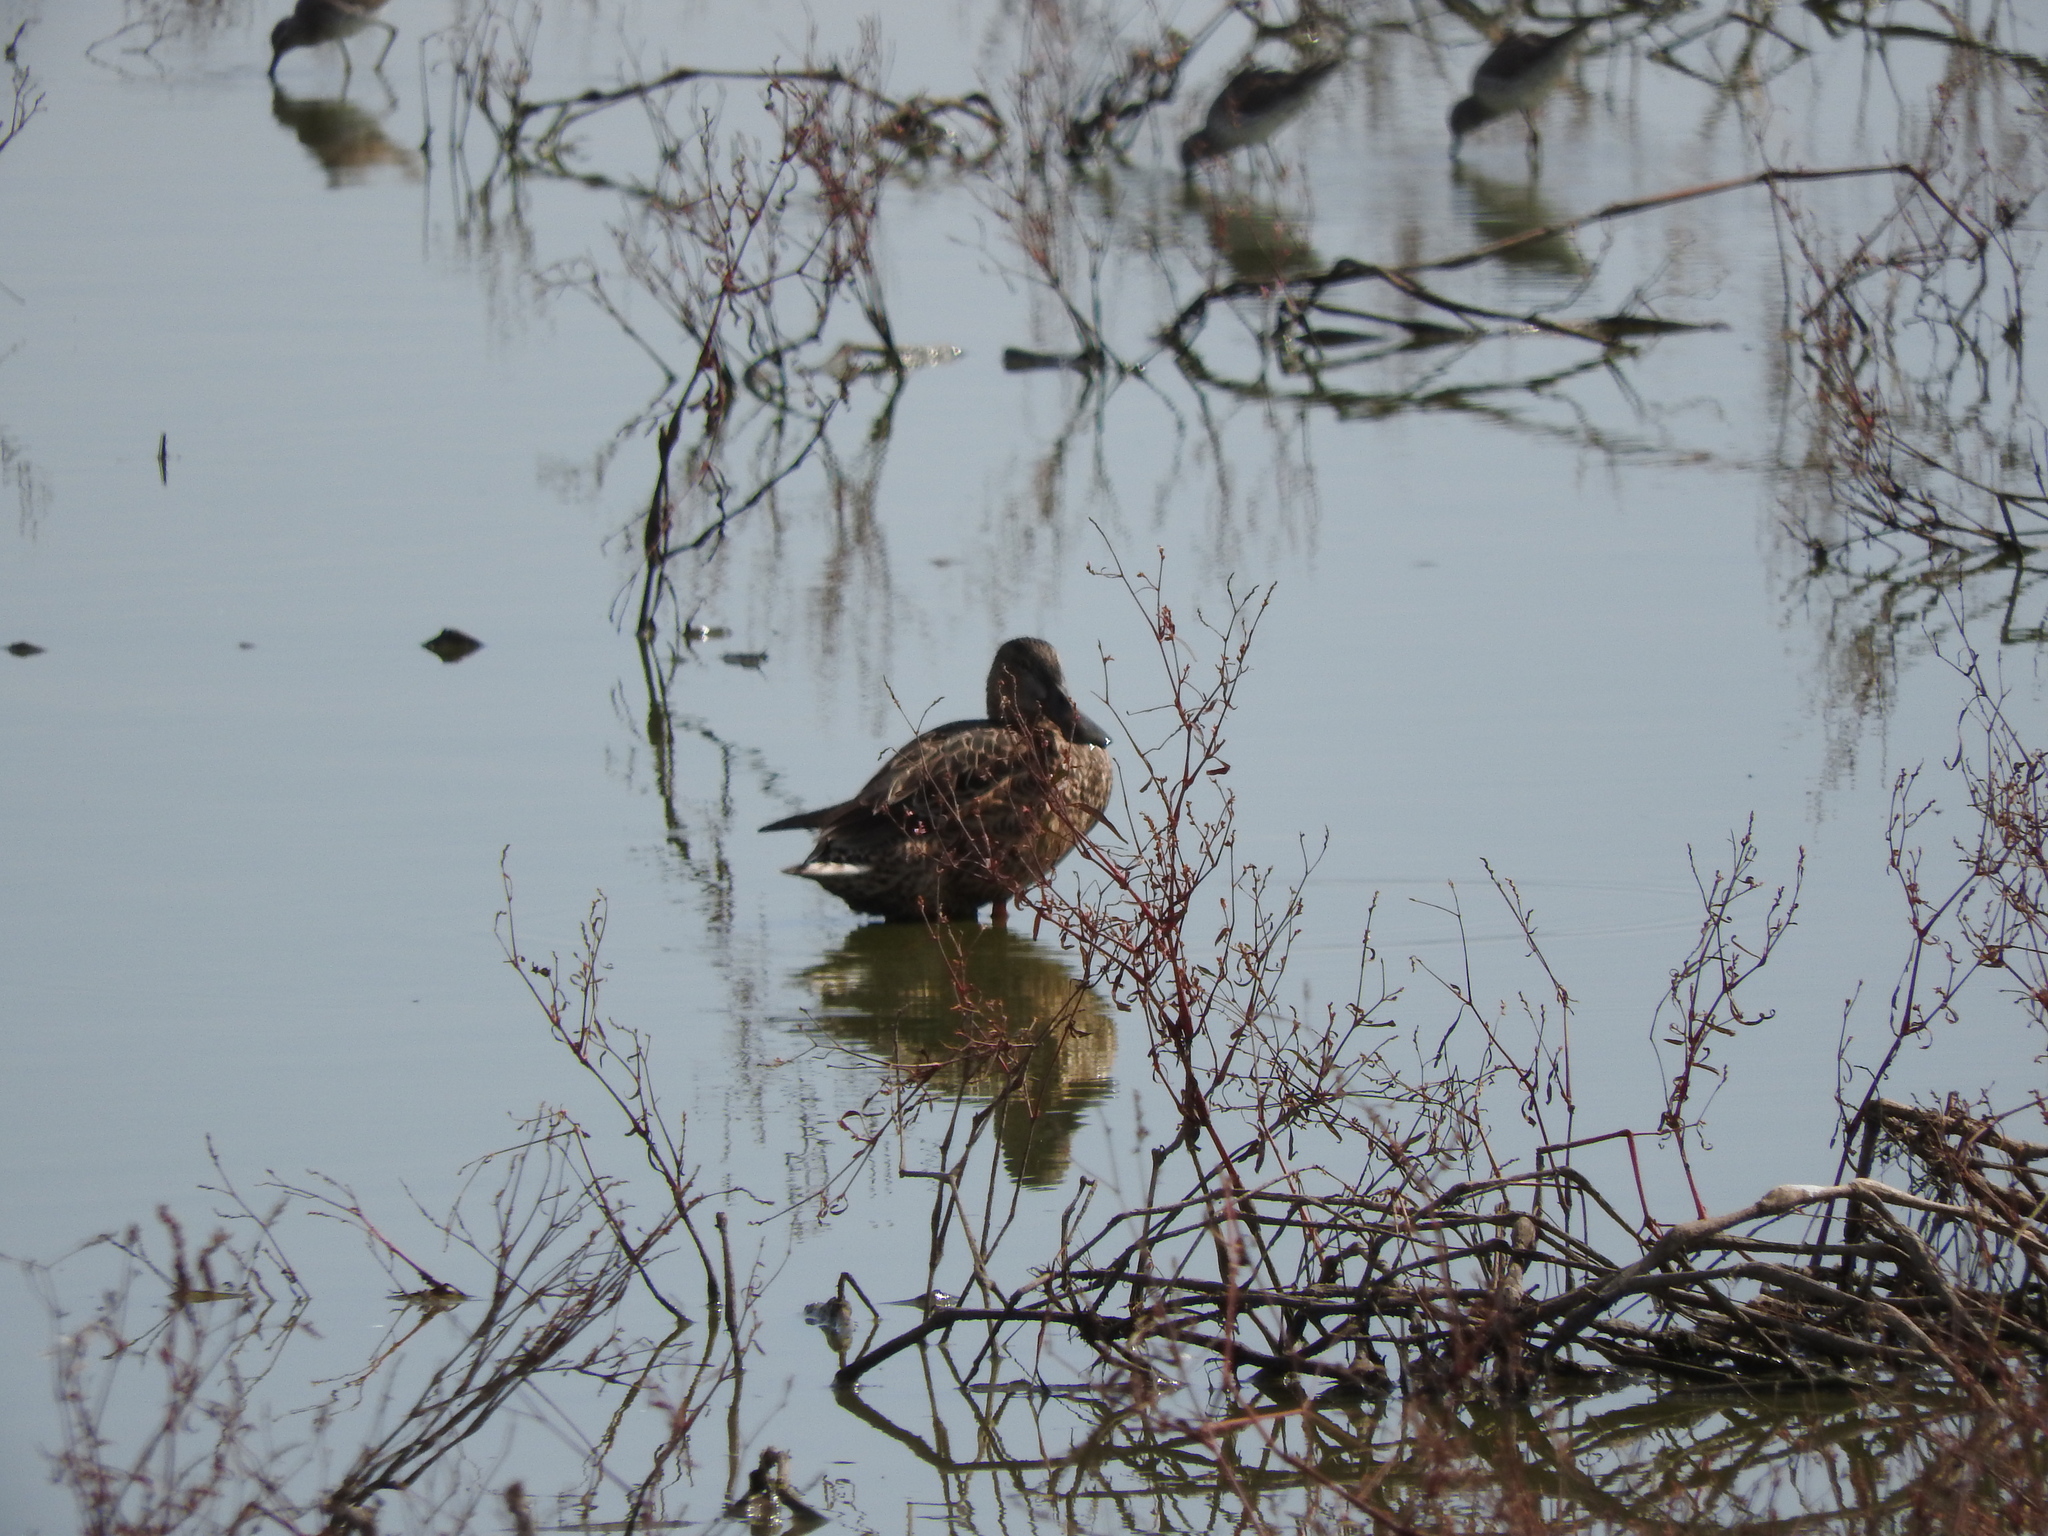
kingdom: Animalia
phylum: Chordata
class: Aves
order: Anseriformes
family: Anatidae
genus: Spatula
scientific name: Spatula clypeata
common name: Northern shoveler
